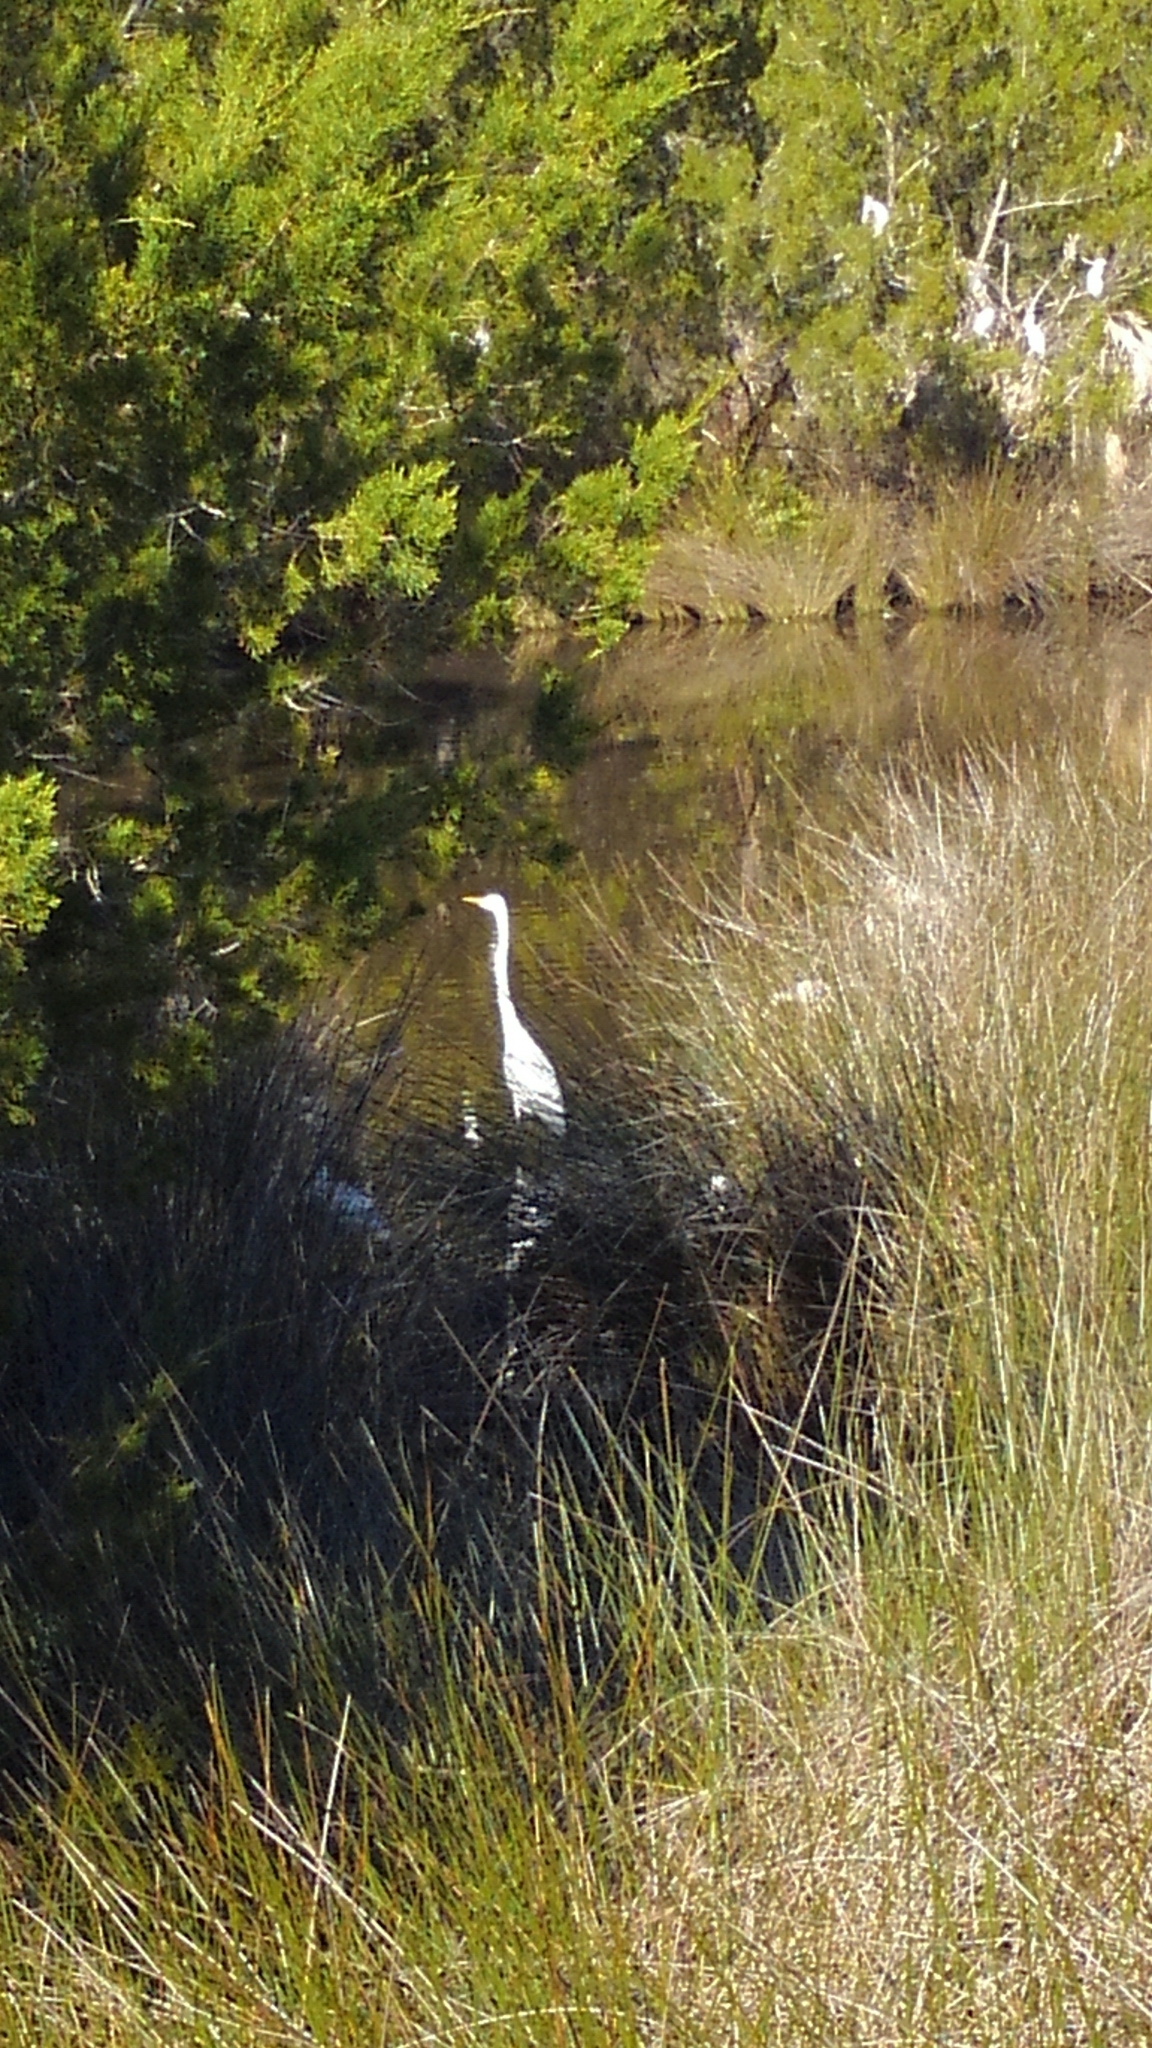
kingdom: Animalia
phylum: Chordata
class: Aves
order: Pelecaniformes
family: Ardeidae
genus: Ardea
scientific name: Ardea alba
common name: Great egret
